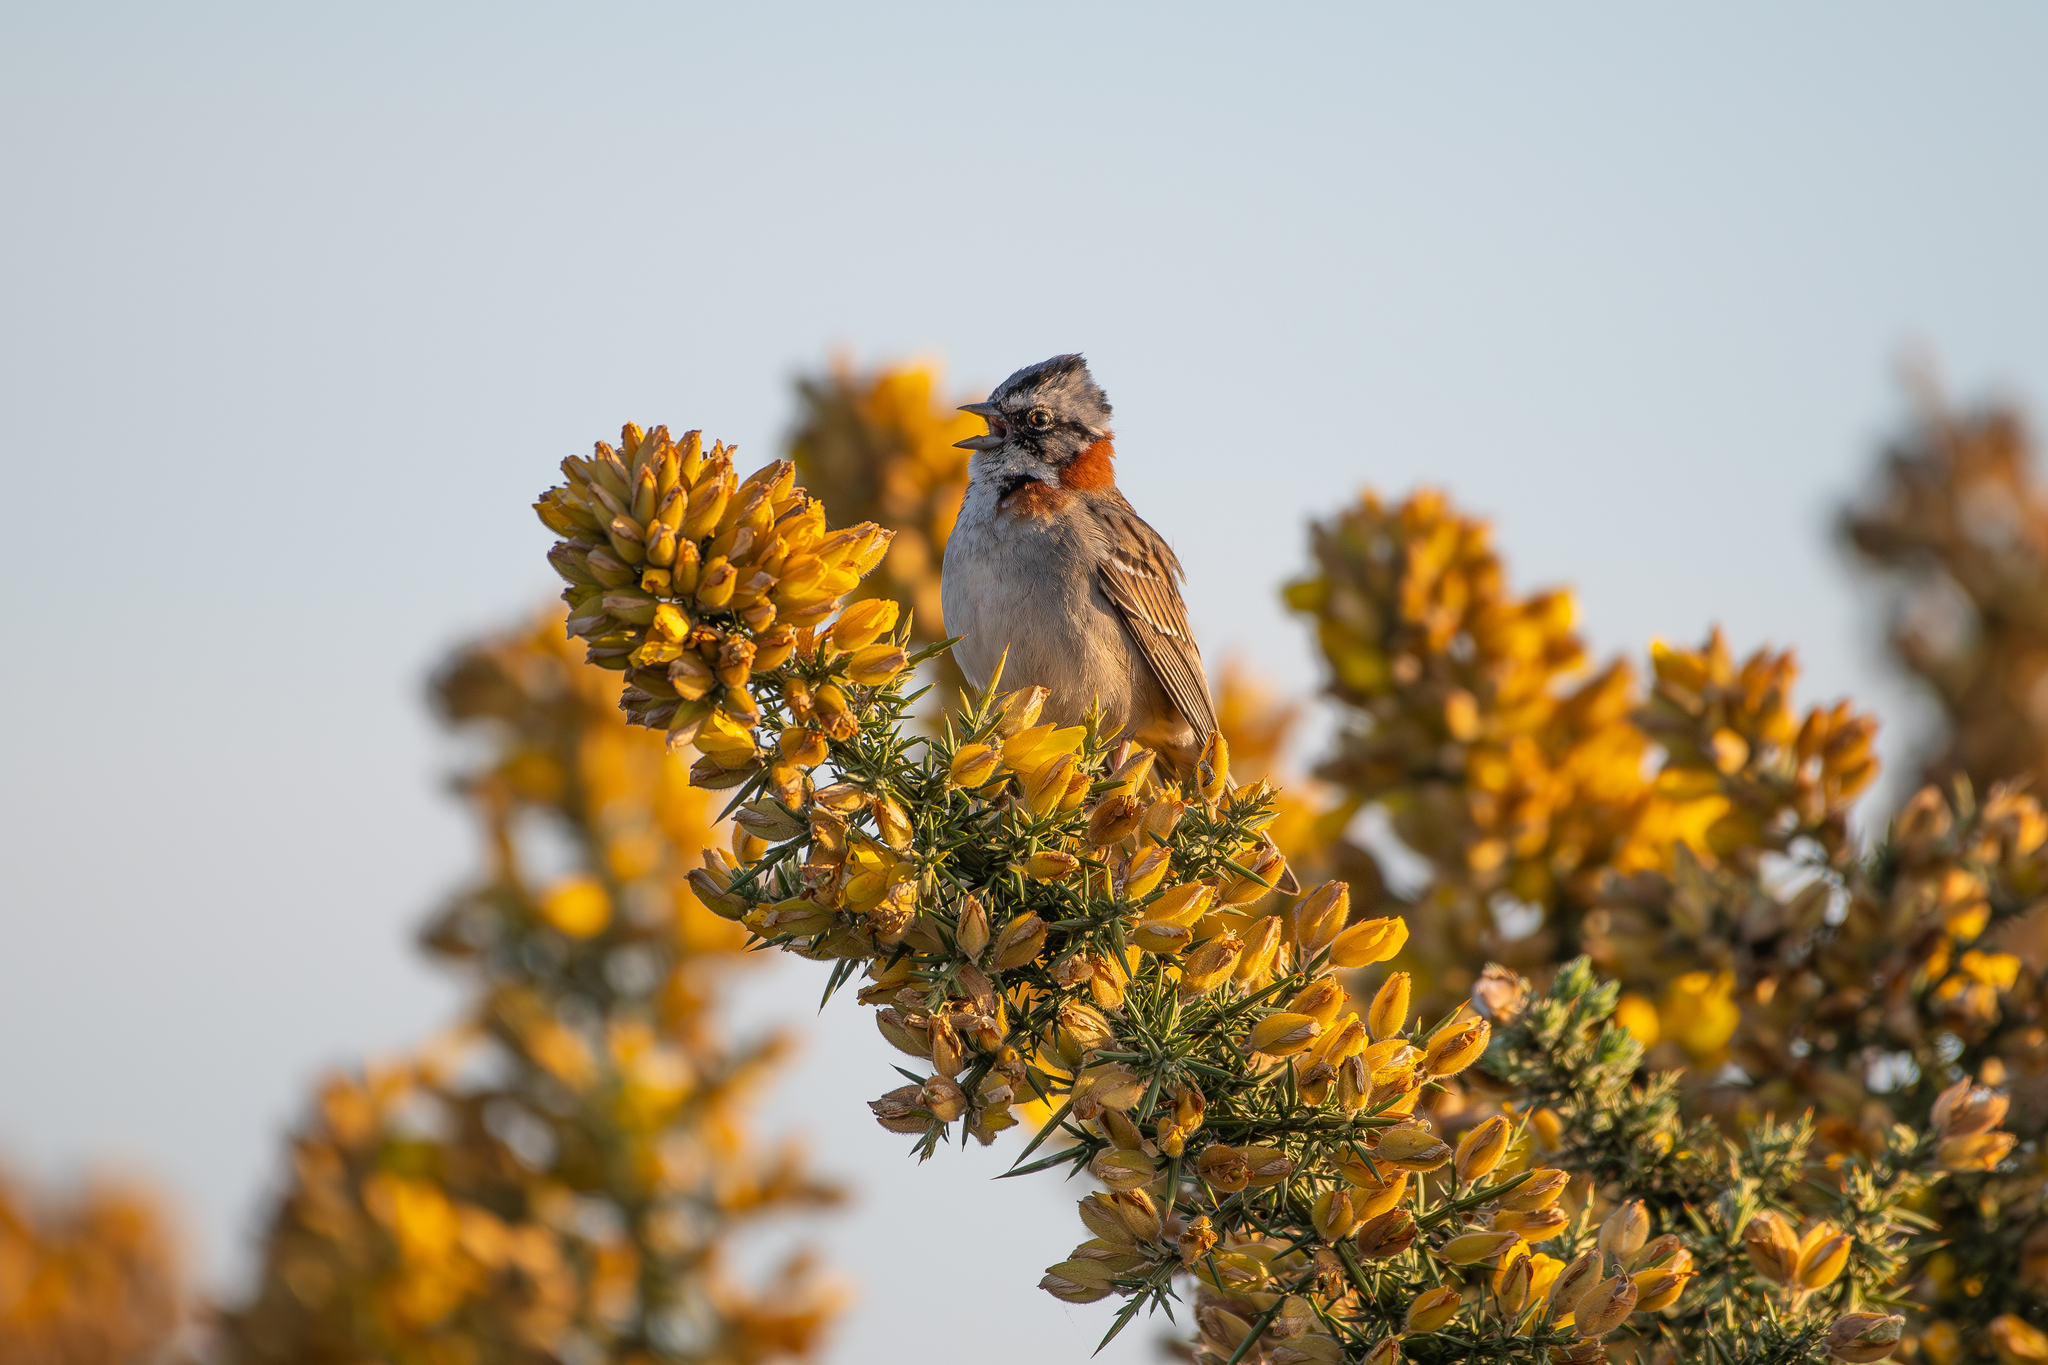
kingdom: Animalia
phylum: Chordata
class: Aves
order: Passeriformes
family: Passerellidae
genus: Zonotrichia
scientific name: Zonotrichia capensis
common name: Rufous-collared sparrow
